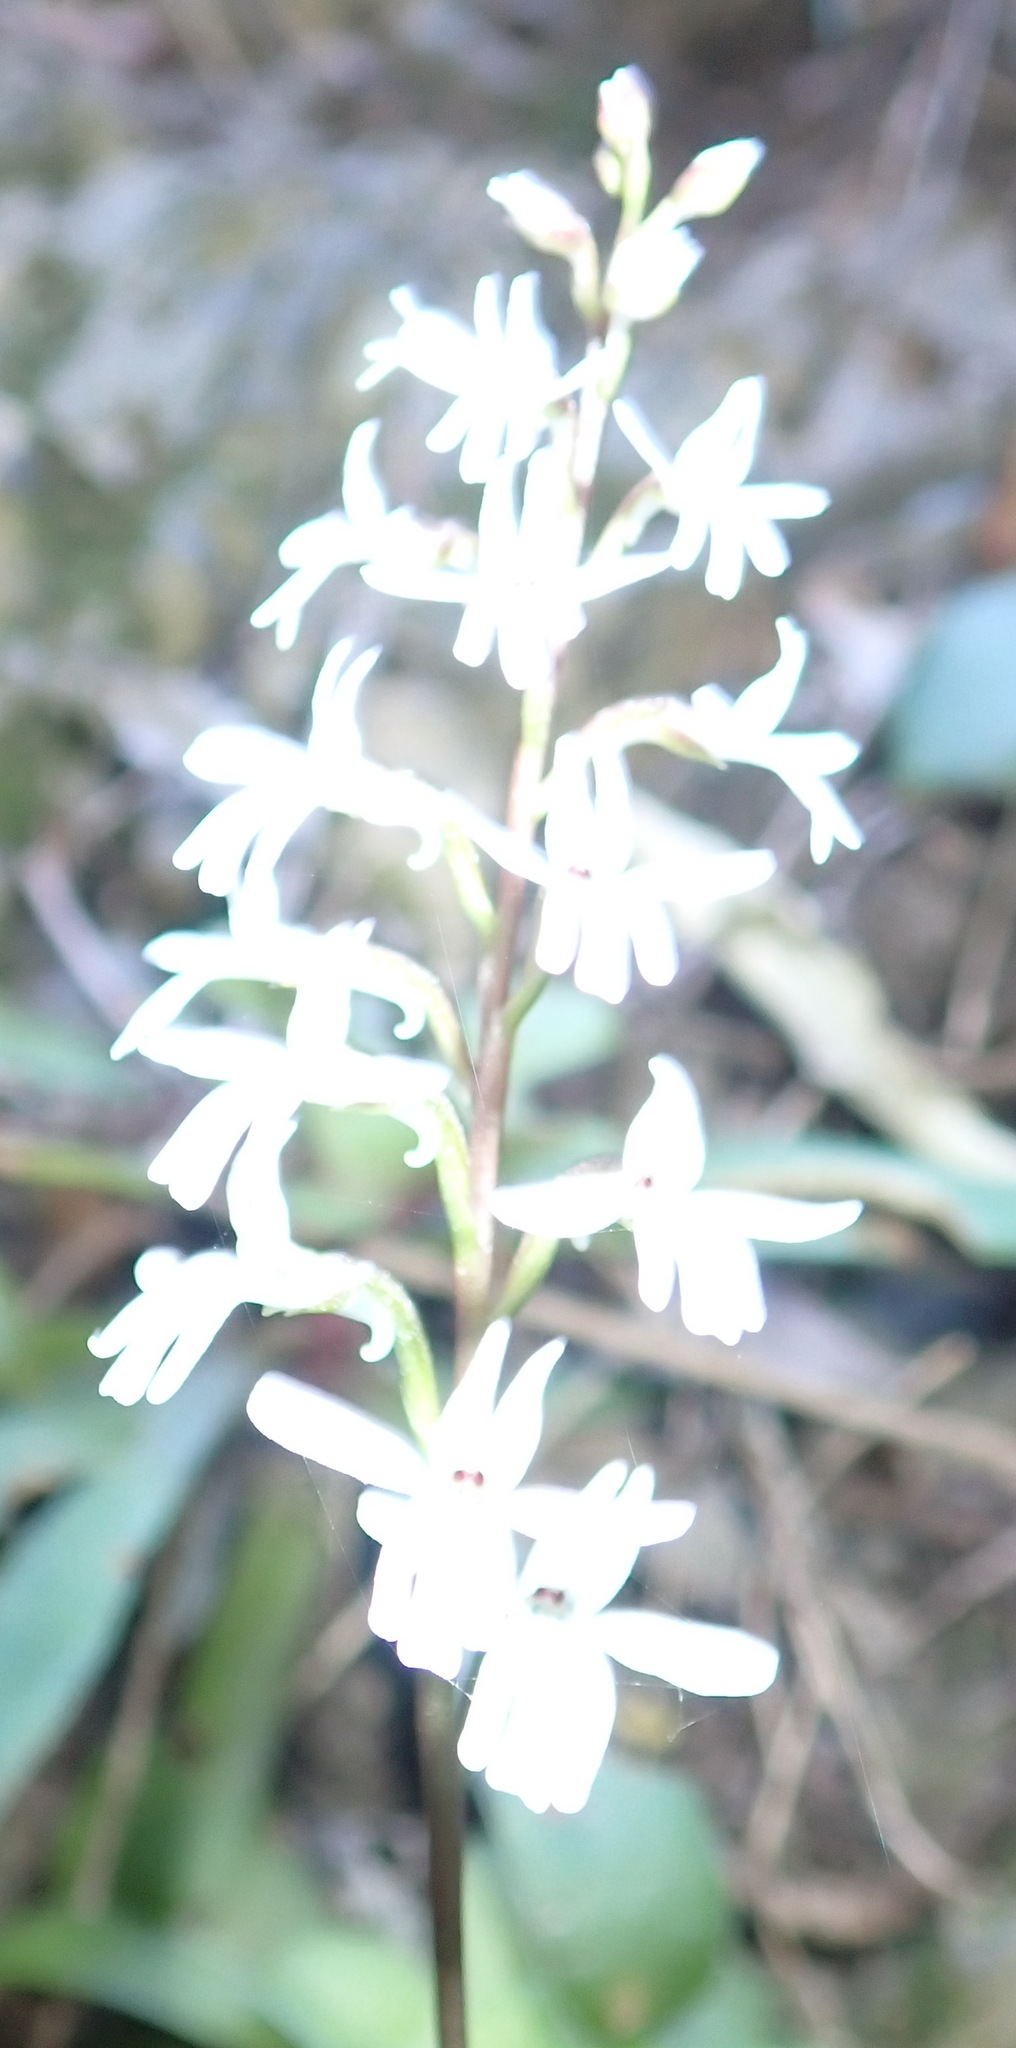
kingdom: Plantae
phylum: Tracheophyta
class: Liliopsida
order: Asparagales
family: Orchidaceae
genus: Holothrix
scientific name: Holothrix parviflora
